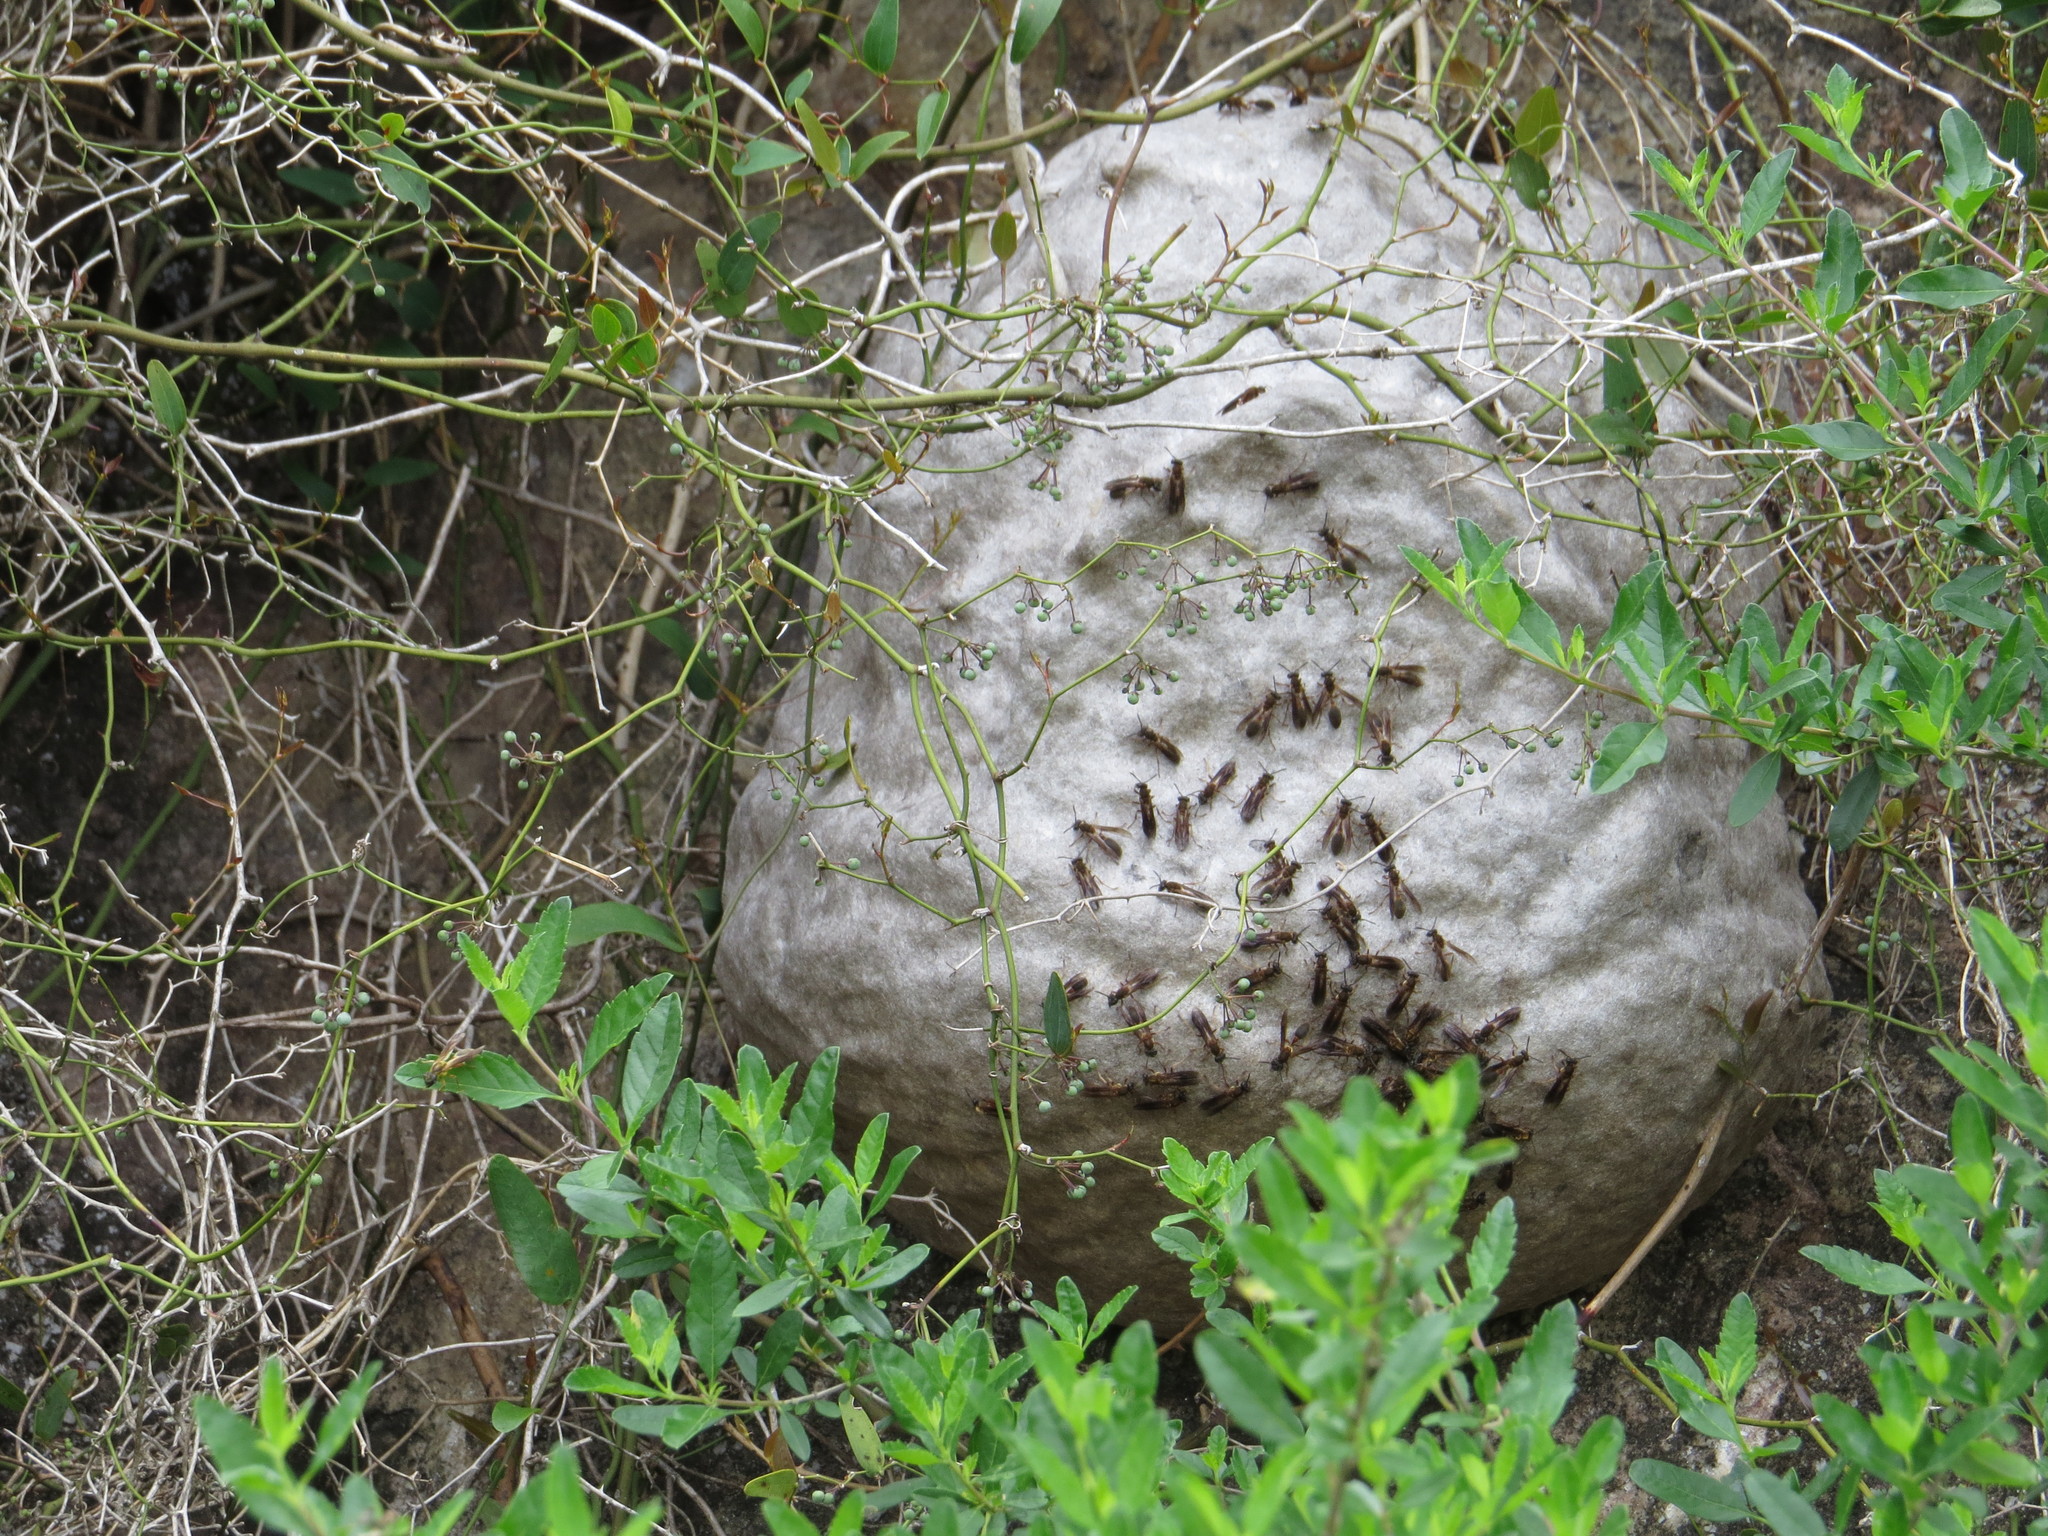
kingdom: Animalia
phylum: Arthropoda
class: Insecta
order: Hymenoptera
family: Eumenidae
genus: Polybia
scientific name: Polybia sericea
